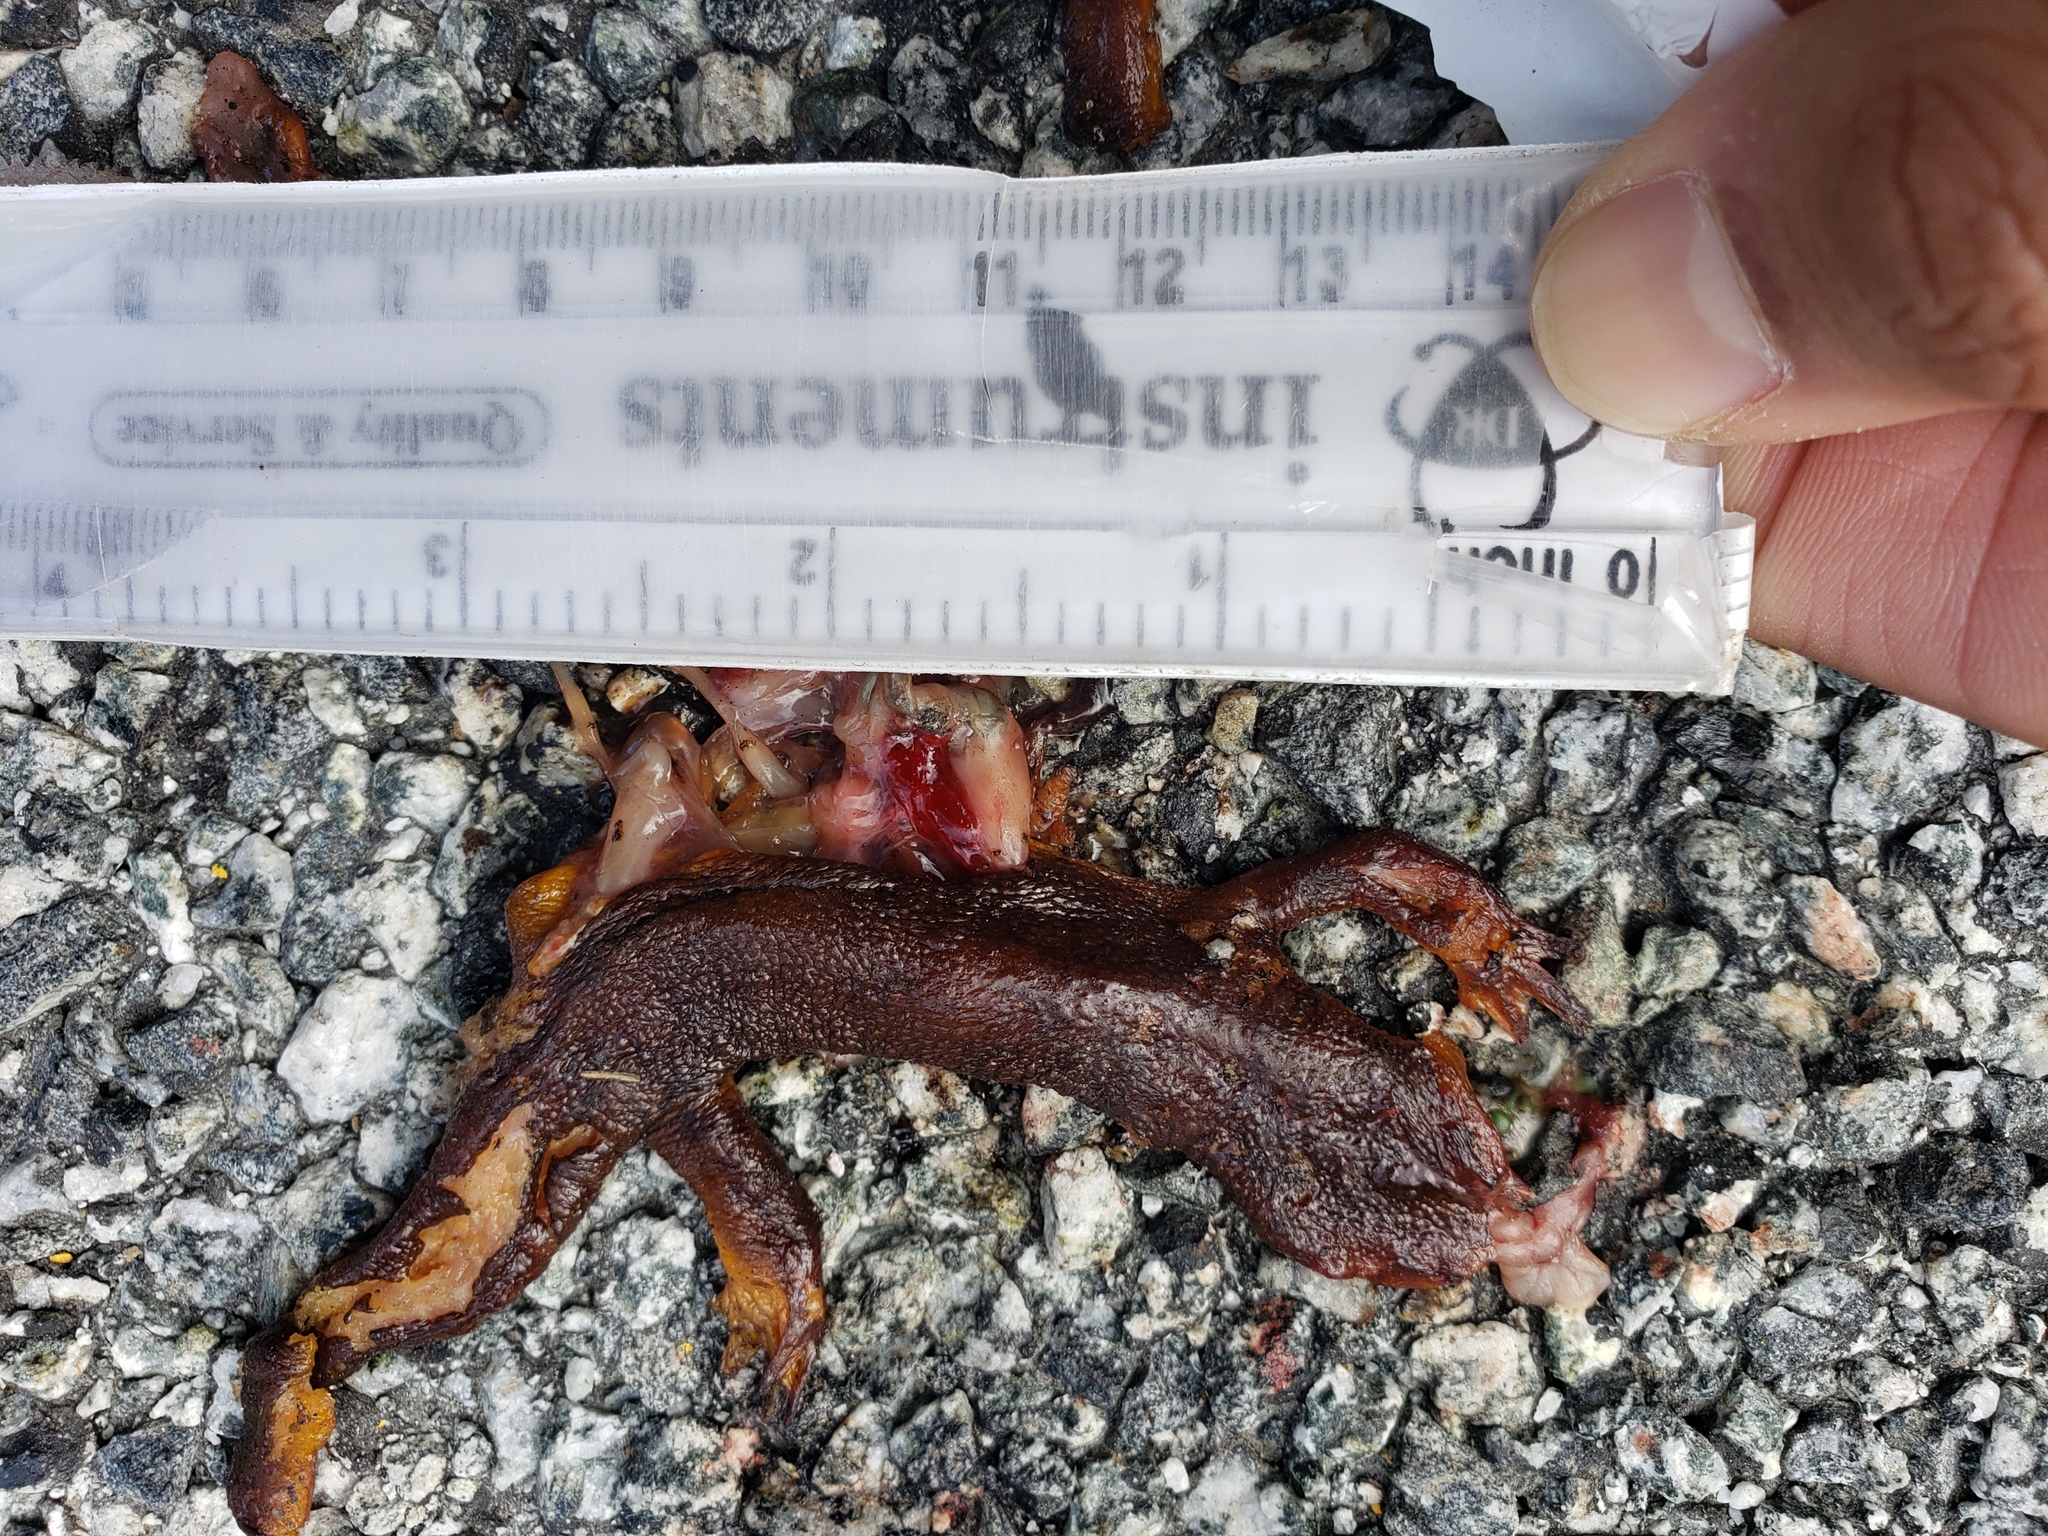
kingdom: Animalia
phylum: Chordata
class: Amphibia
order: Caudata
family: Salamandridae
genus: Taricha
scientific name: Taricha
